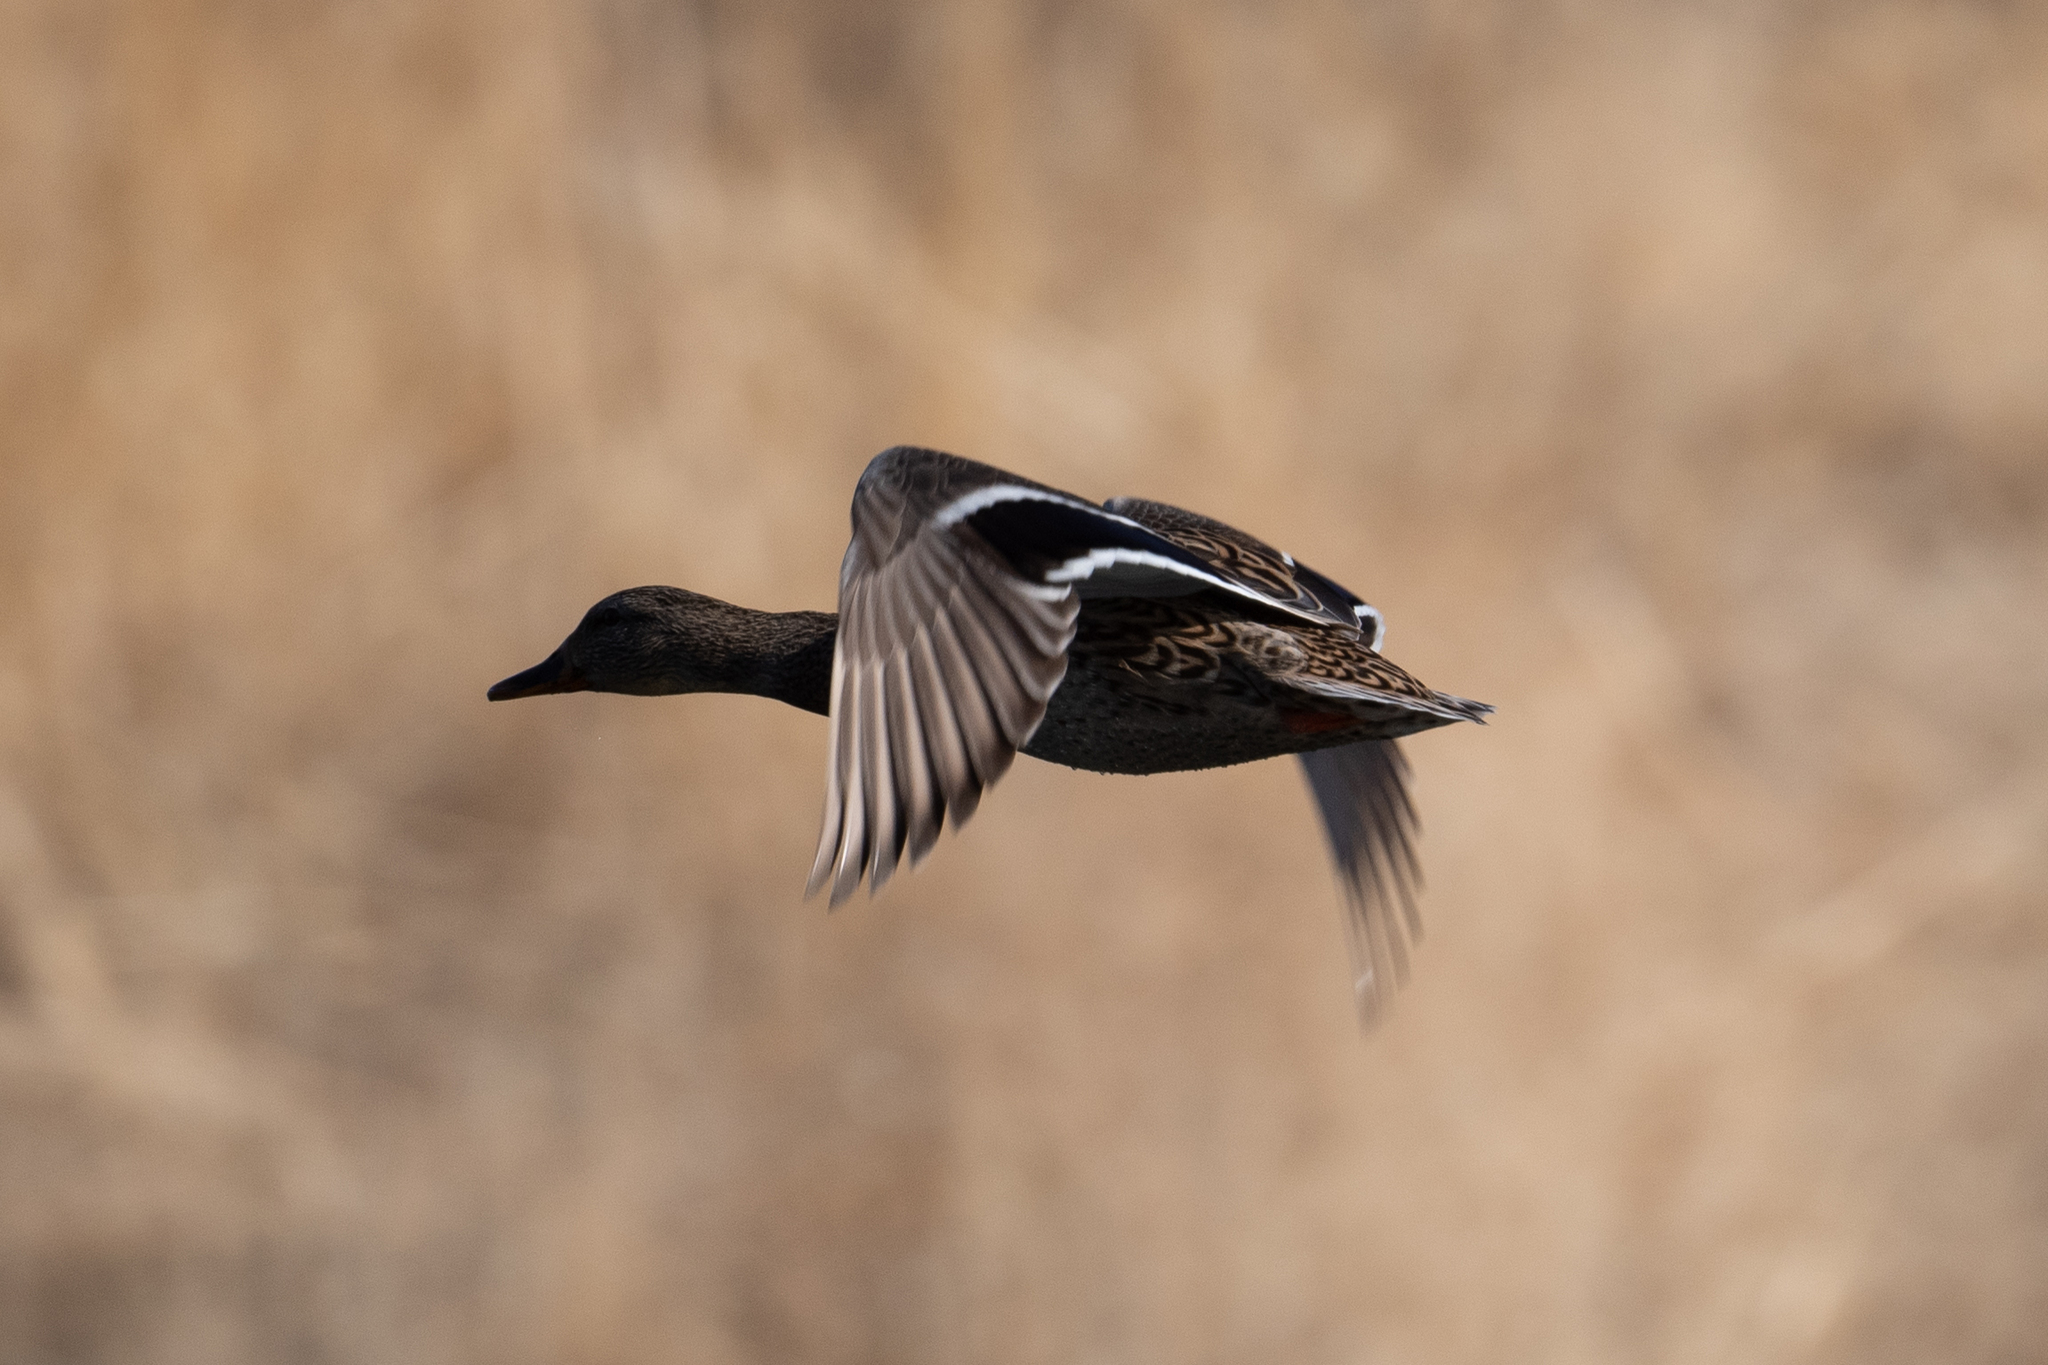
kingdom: Animalia
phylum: Chordata
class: Aves
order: Anseriformes
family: Anatidae
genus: Anas
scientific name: Anas platyrhynchos
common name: Mallard
